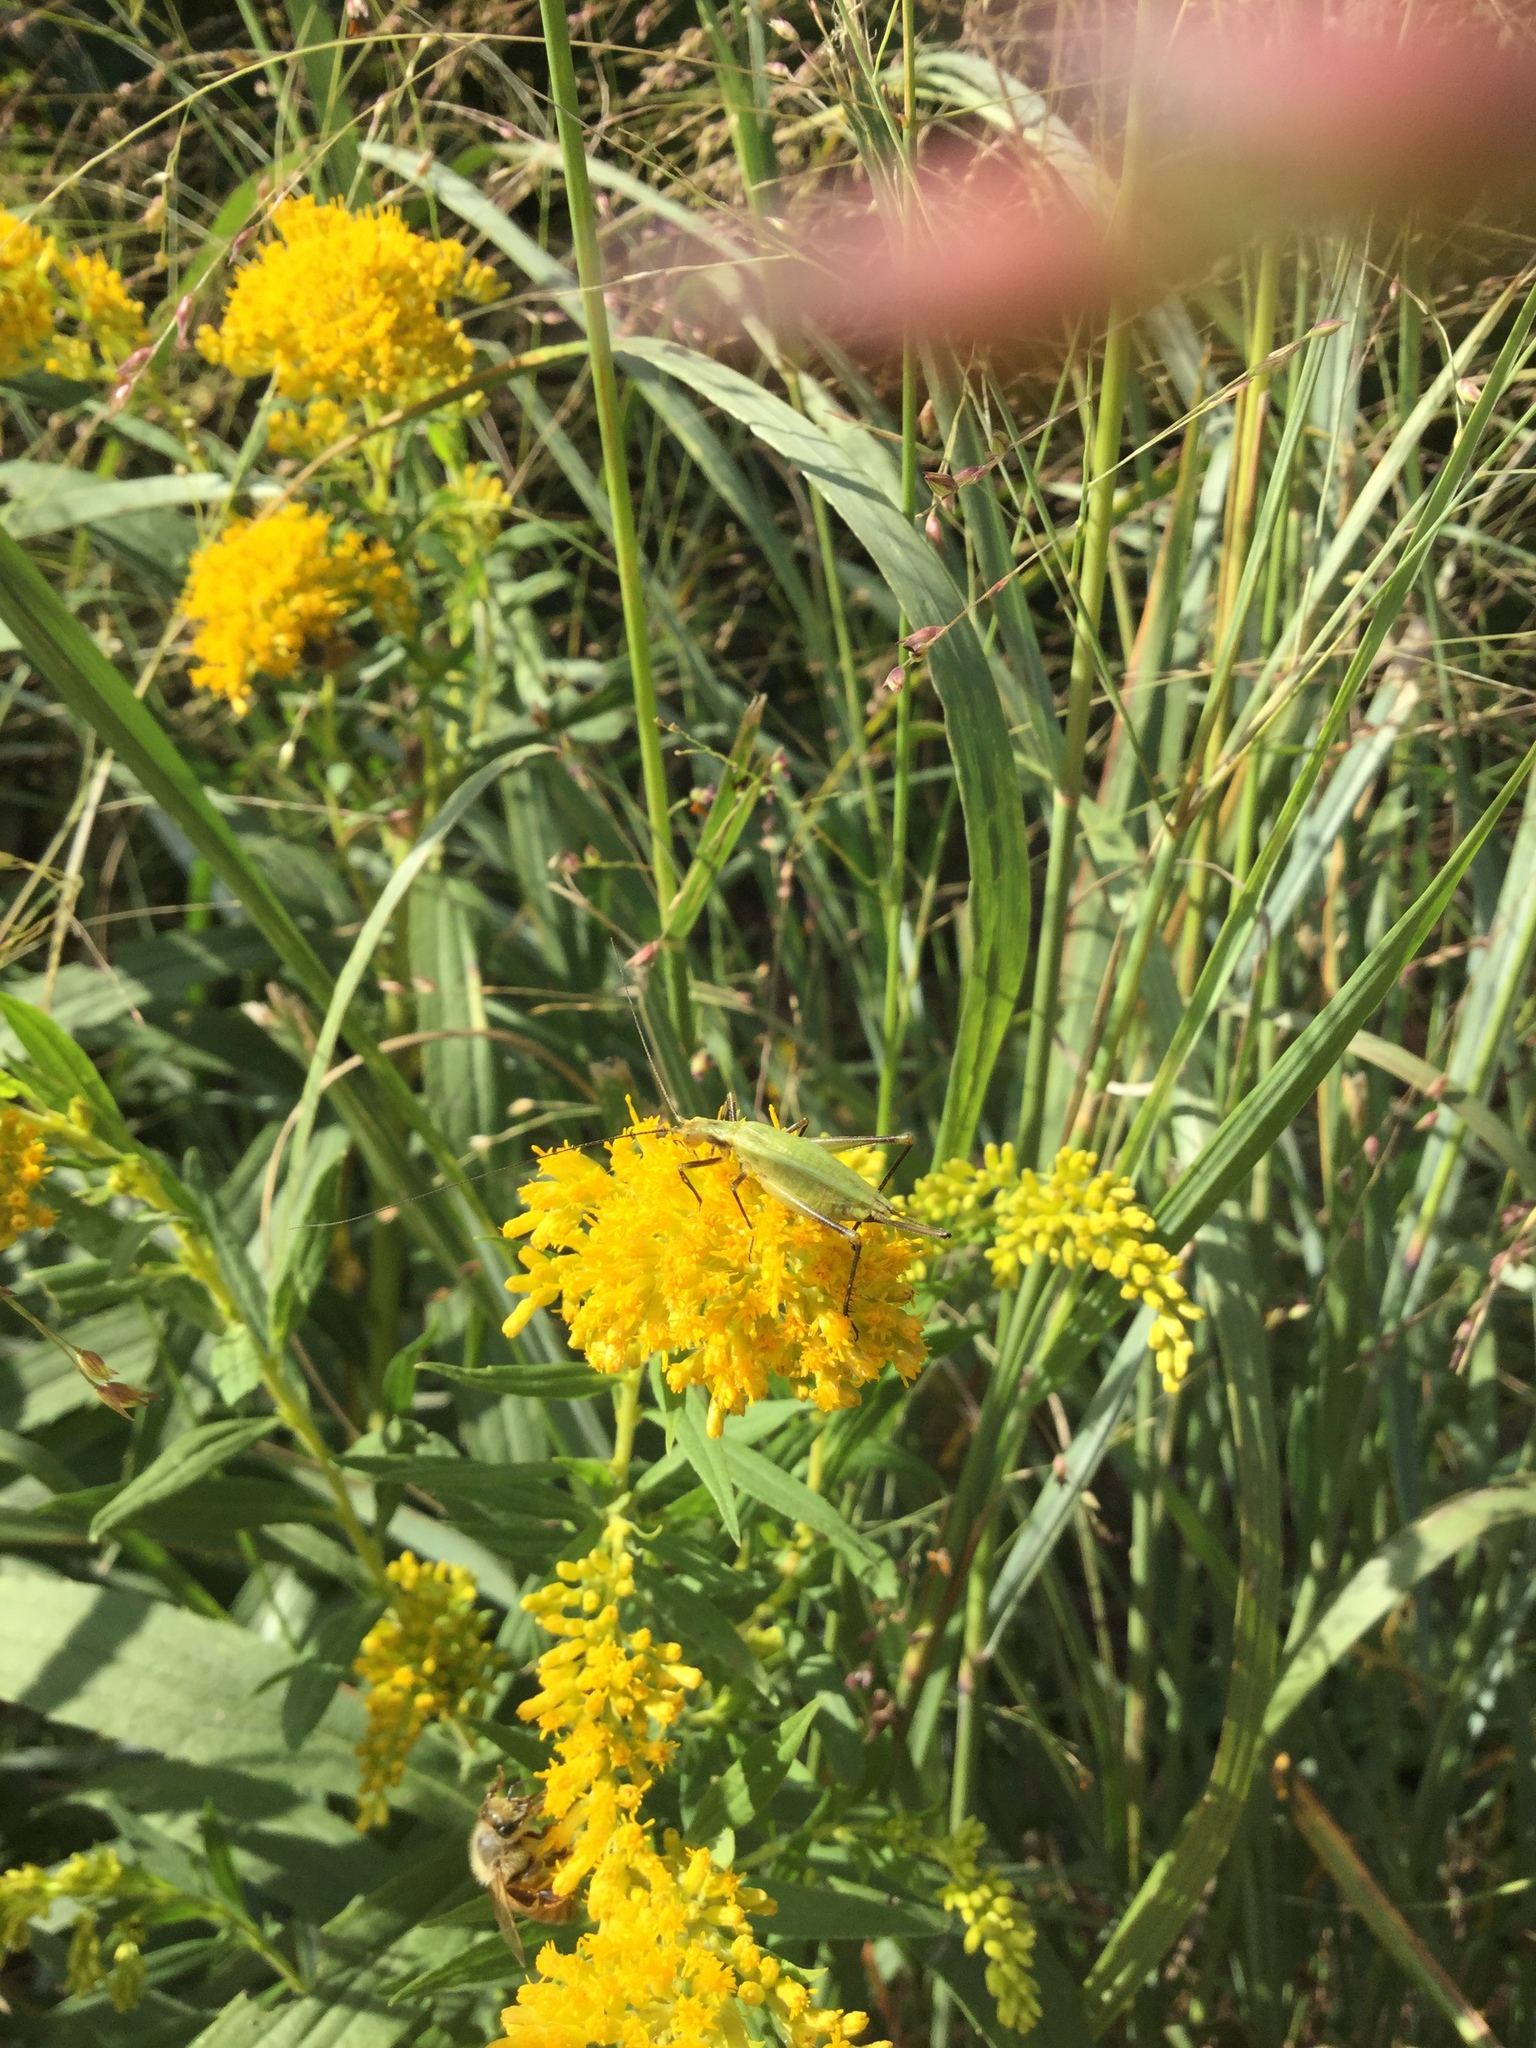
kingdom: Animalia
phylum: Arthropoda
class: Insecta
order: Orthoptera
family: Gryllidae
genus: Oecanthus
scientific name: Oecanthus nigricornis
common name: Black-horned tree cricket
